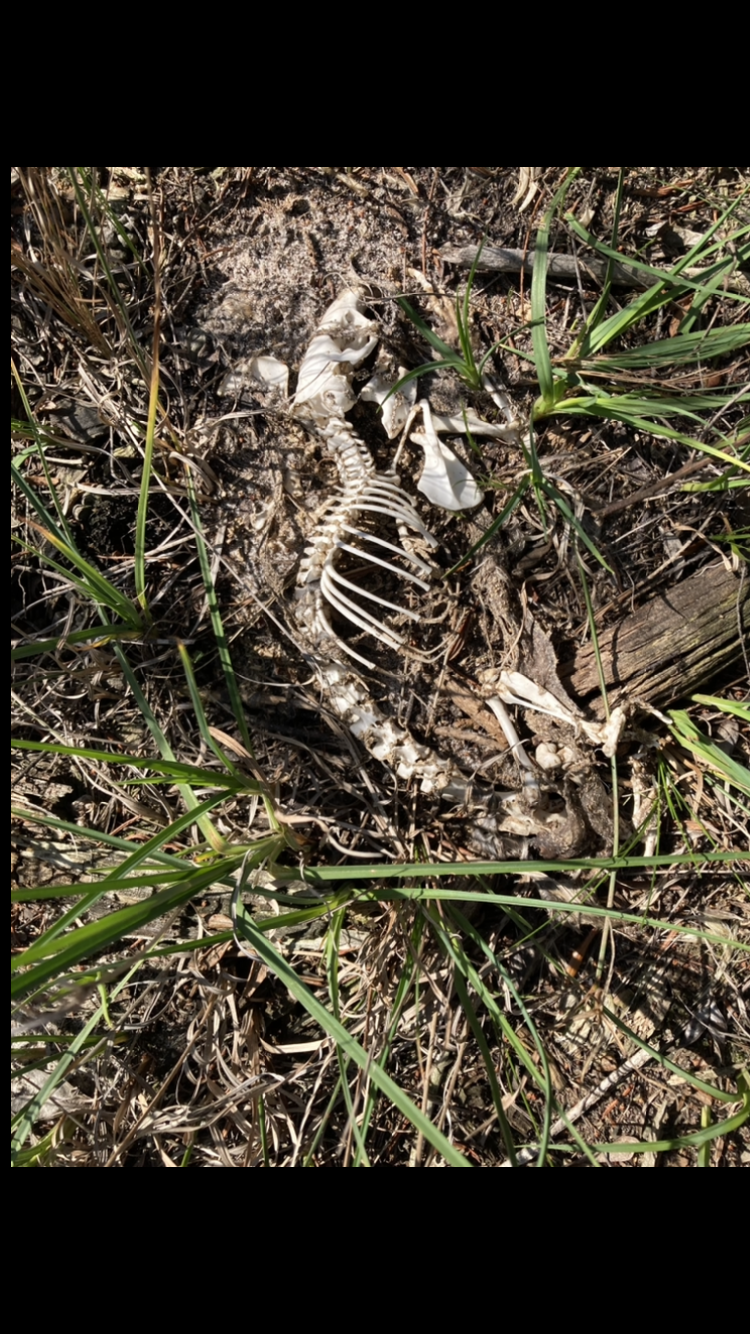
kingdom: Animalia
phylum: Chordata
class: Mammalia
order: Rodentia
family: Bathyergidae
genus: Bathyergus
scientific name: Bathyergus suillus
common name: Cape dune mole rat
